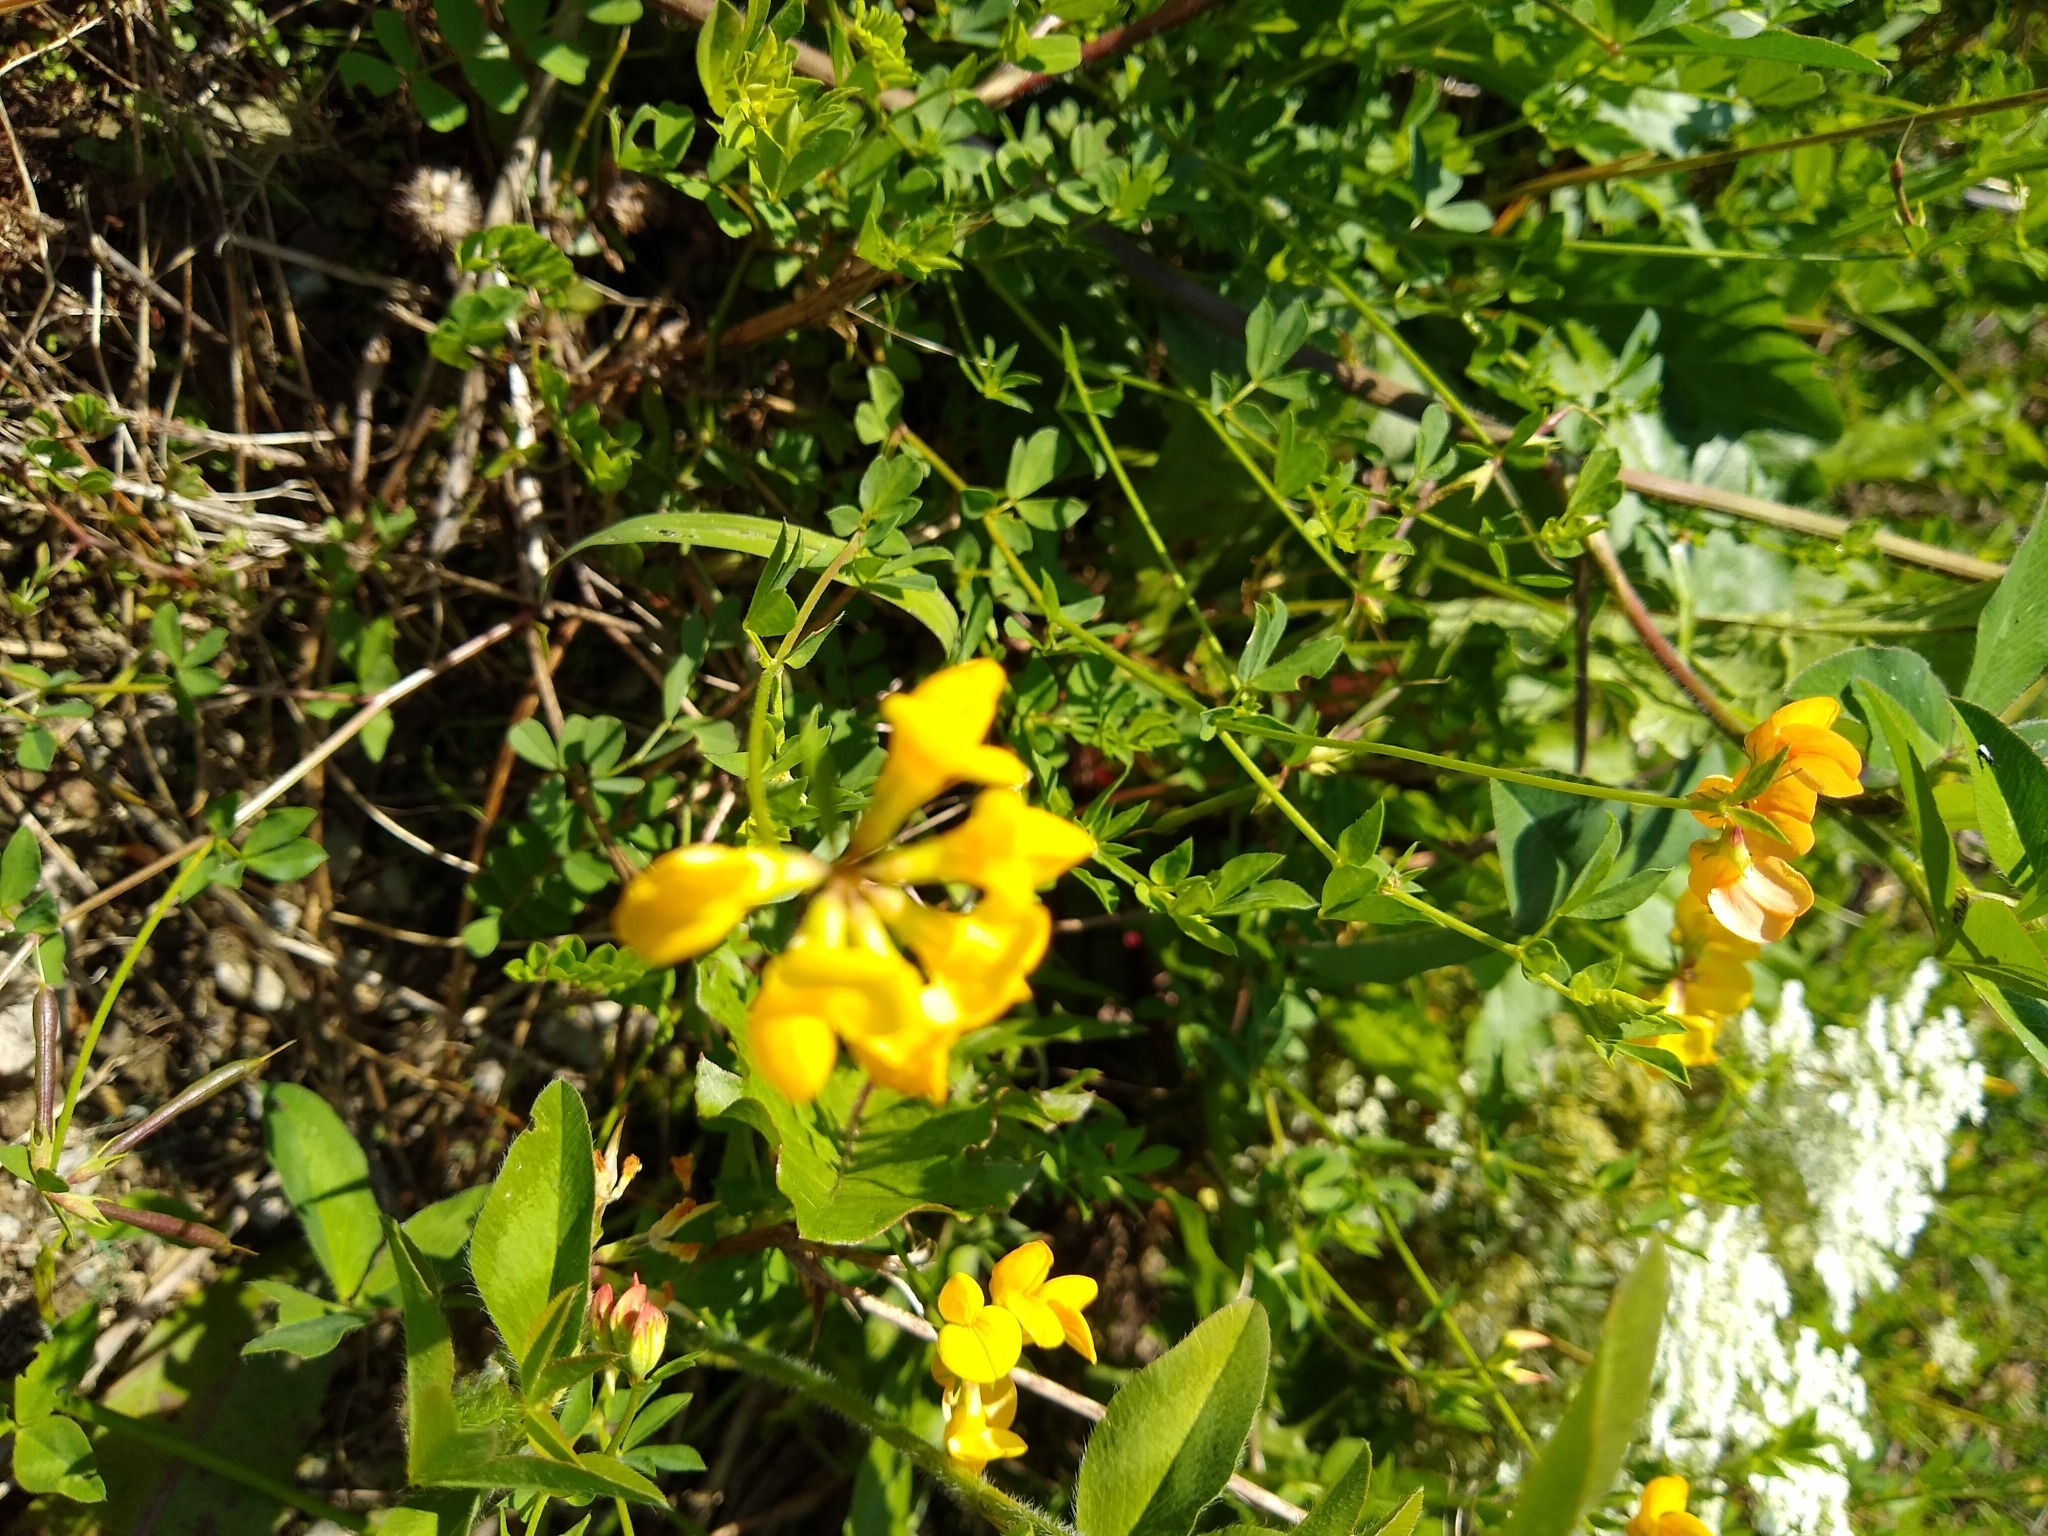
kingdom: Plantae
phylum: Tracheophyta
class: Magnoliopsida
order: Fabales
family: Fabaceae
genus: Lotus
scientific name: Lotus corniculatus
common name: Common bird's-foot-trefoil
